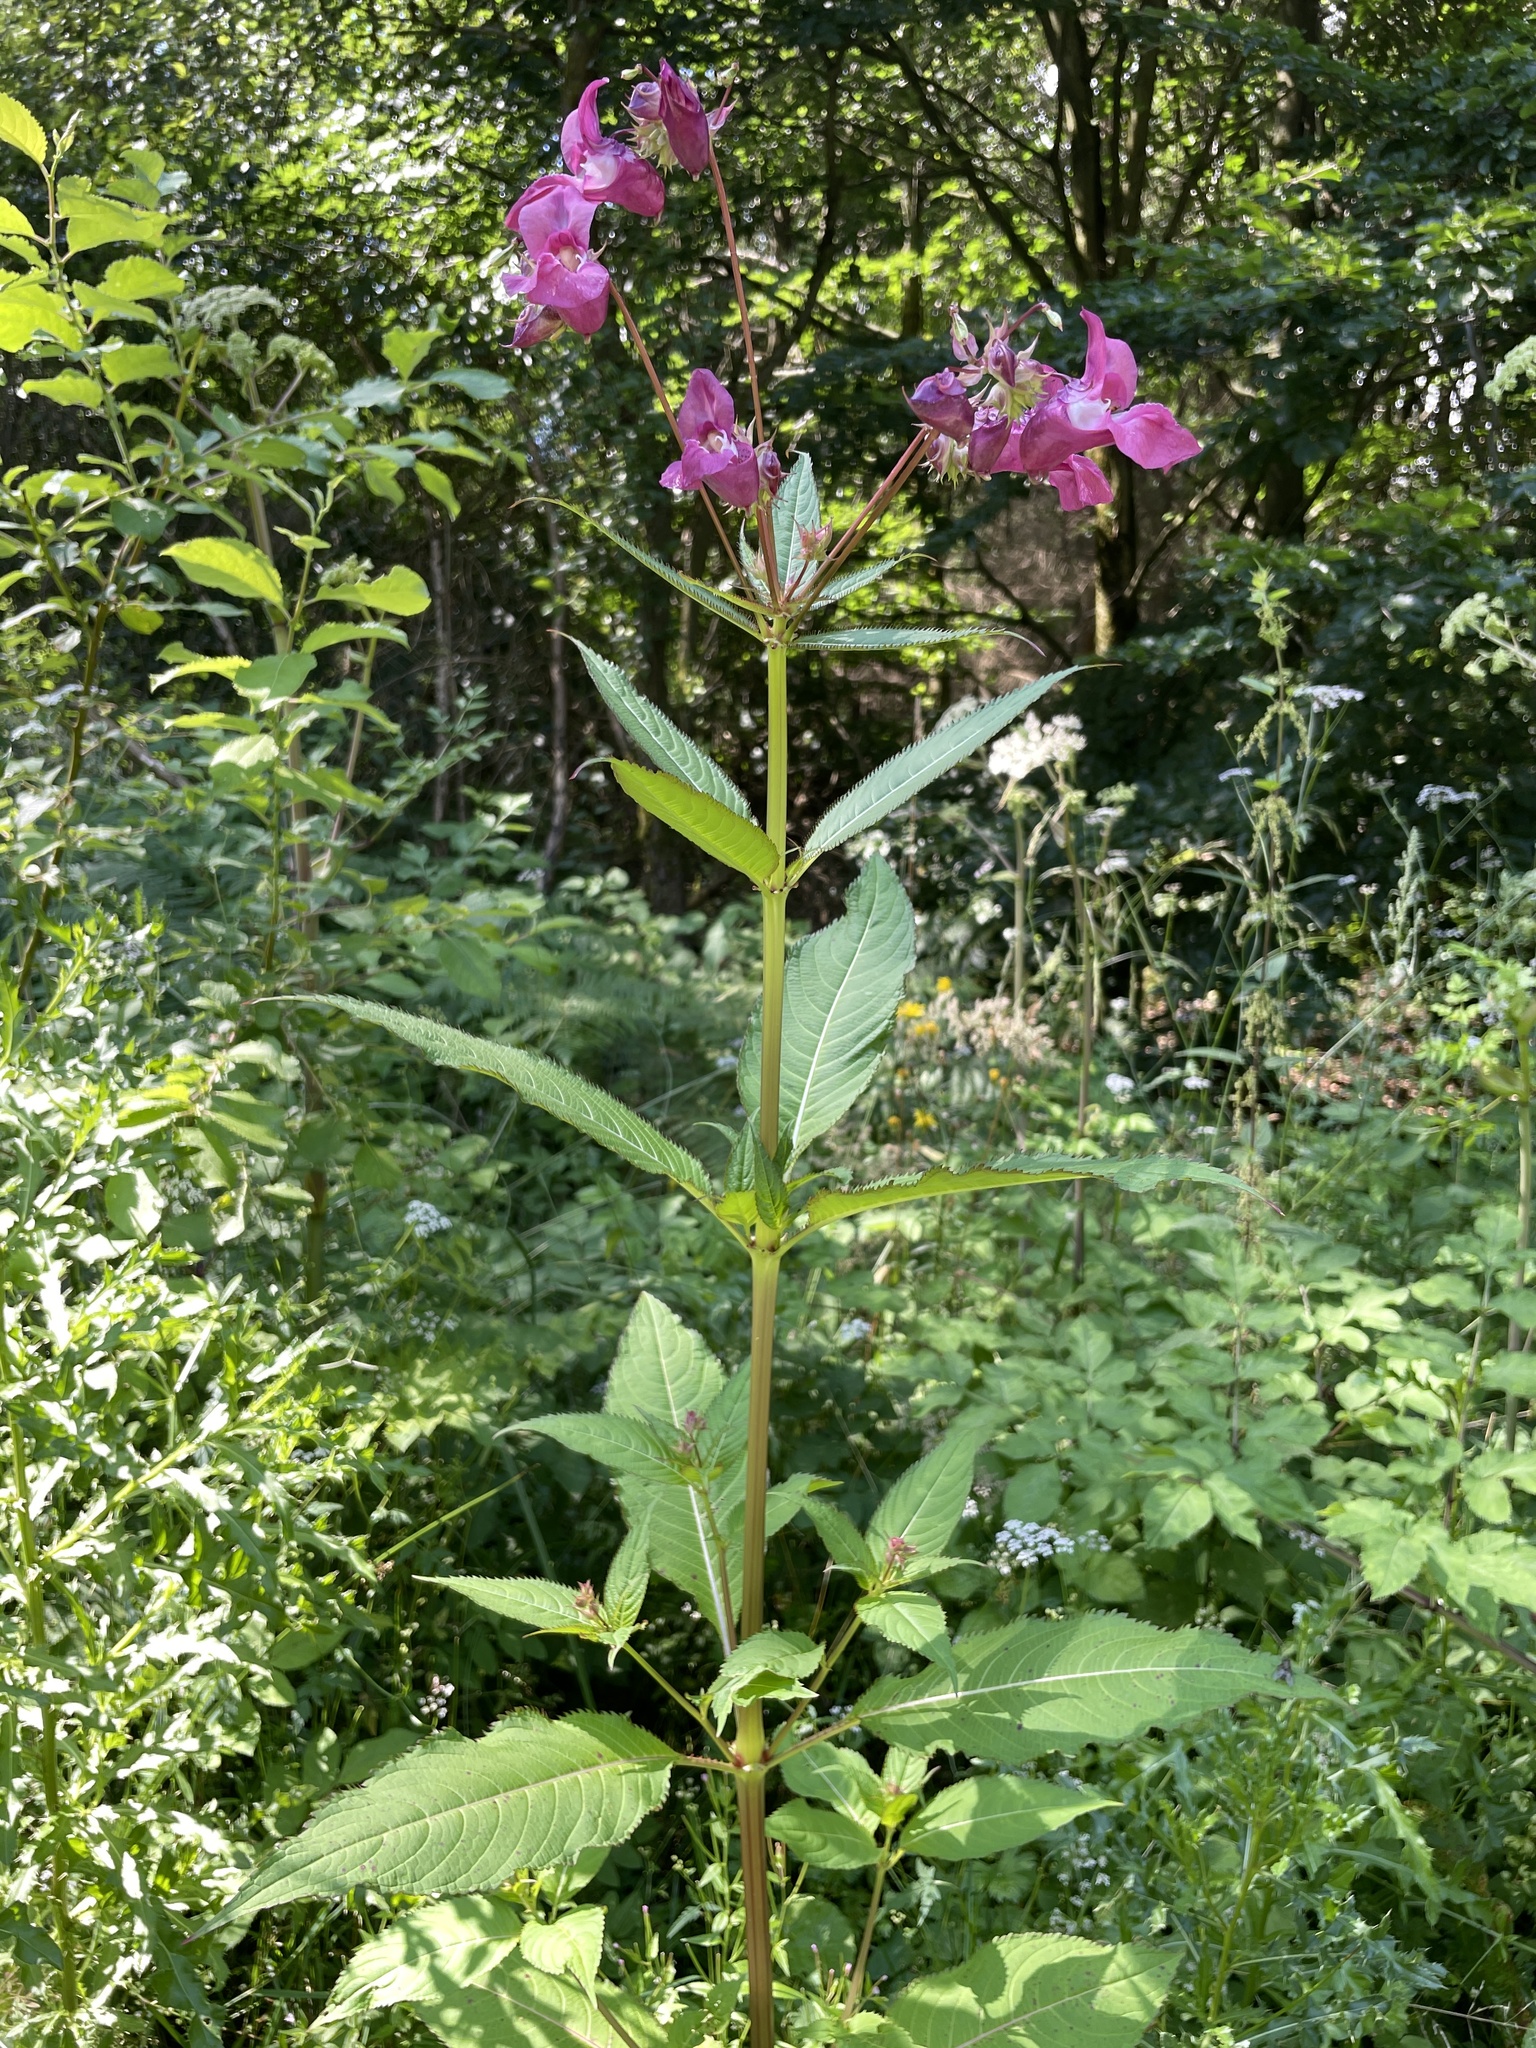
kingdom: Plantae
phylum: Tracheophyta
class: Magnoliopsida
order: Ericales
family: Balsaminaceae
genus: Impatiens
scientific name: Impatiens glandulifera
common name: Himalayan balsam
